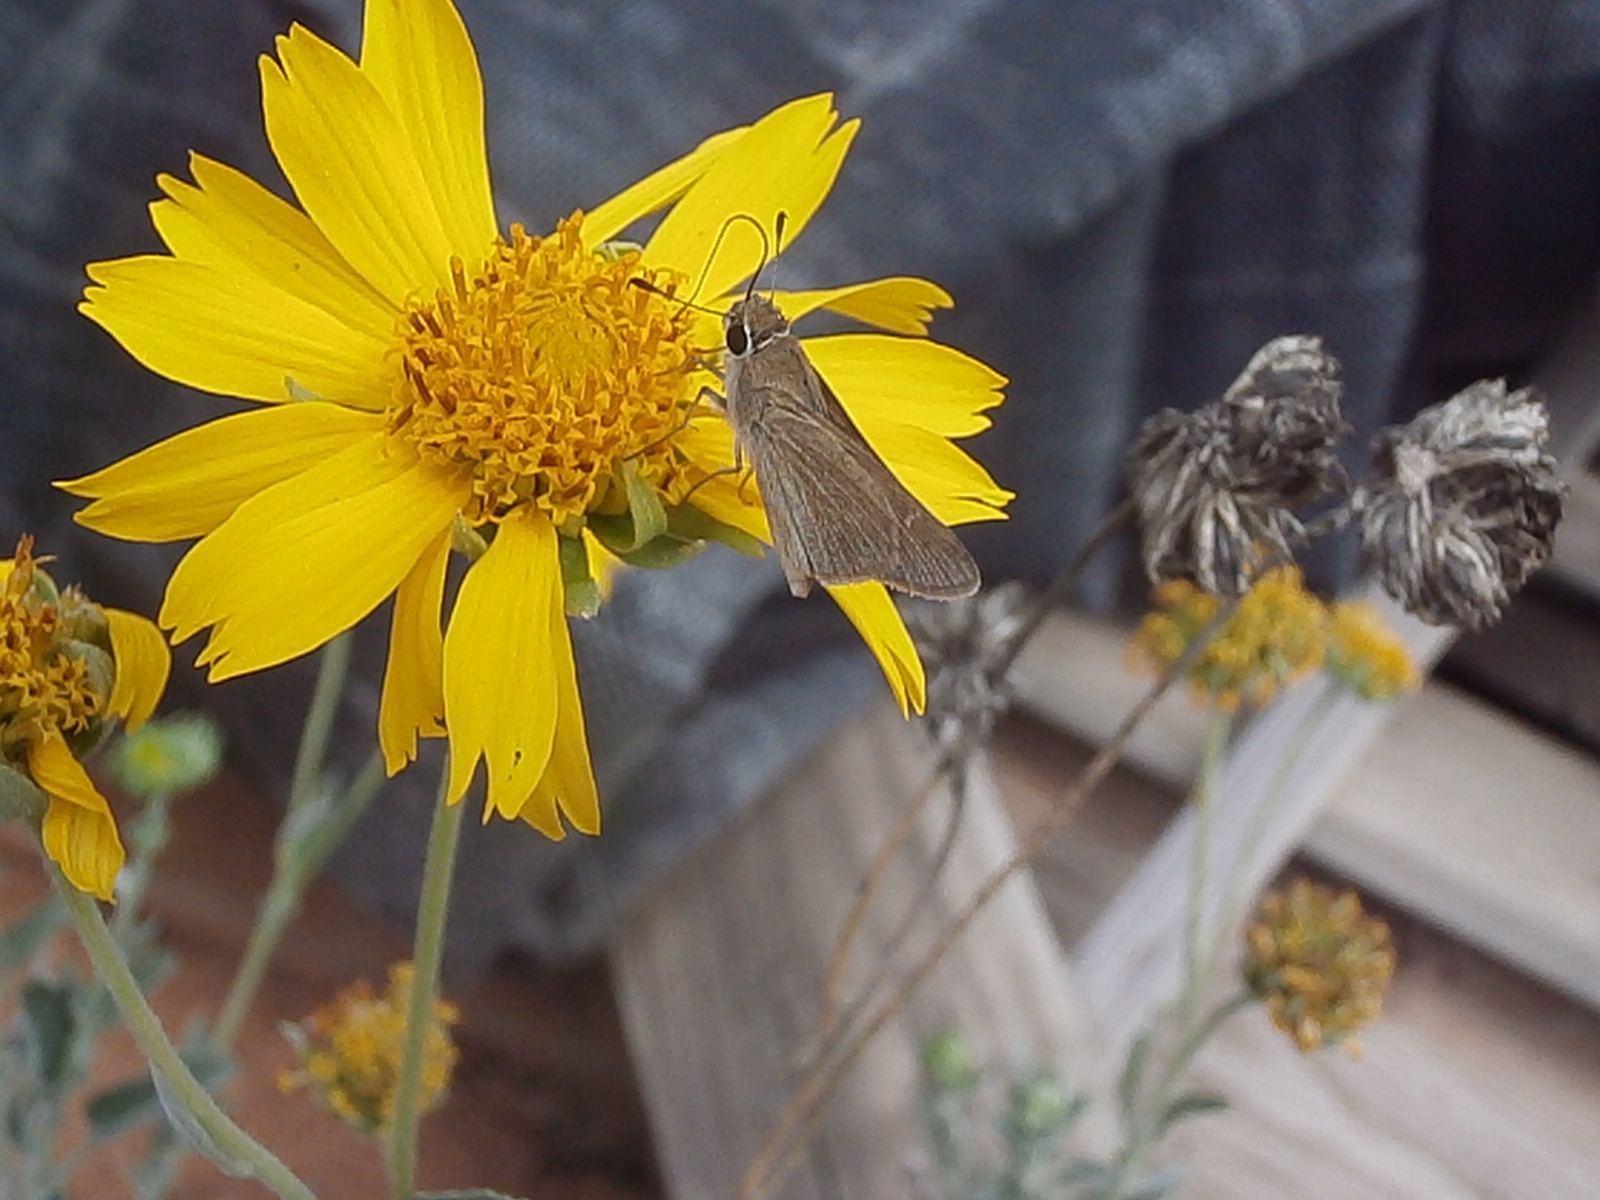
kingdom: Animalia
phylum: Arthropoda
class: Insecta
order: Lepidoptera
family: Hesperiidae
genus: Lerodea
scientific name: Lerodea eufala
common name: Eufala skipper
